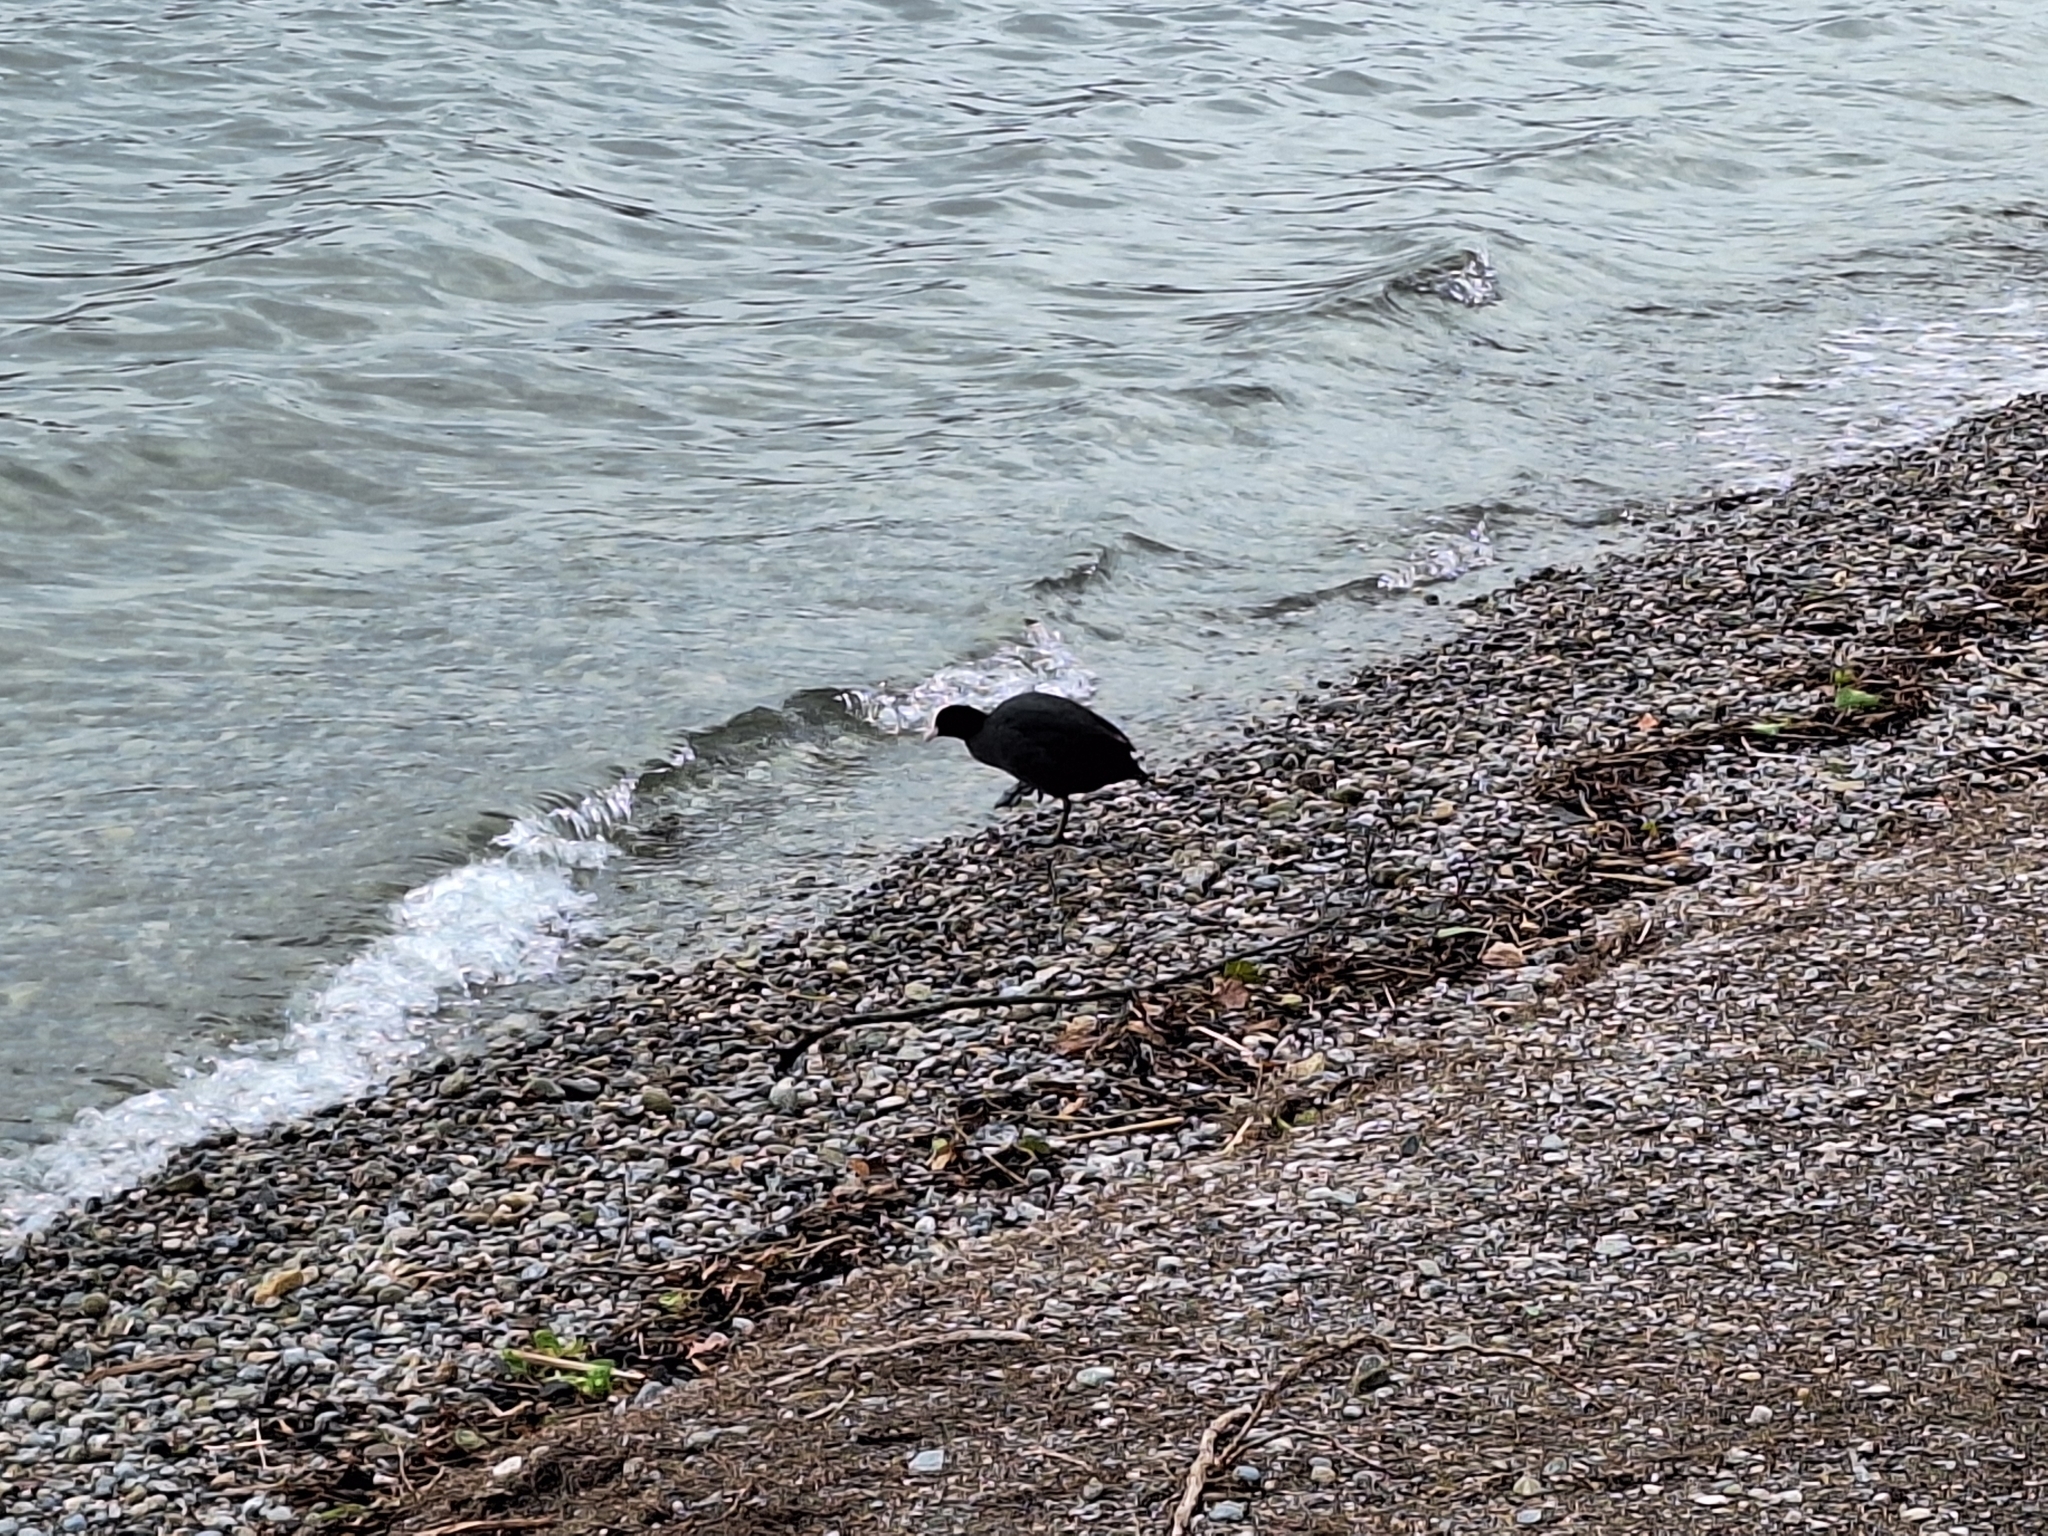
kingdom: Animalia
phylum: Chordata
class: Aves
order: Gruiformes
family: Rallidae
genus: Fulica
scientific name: Fulica atra
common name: Eurasian coot
